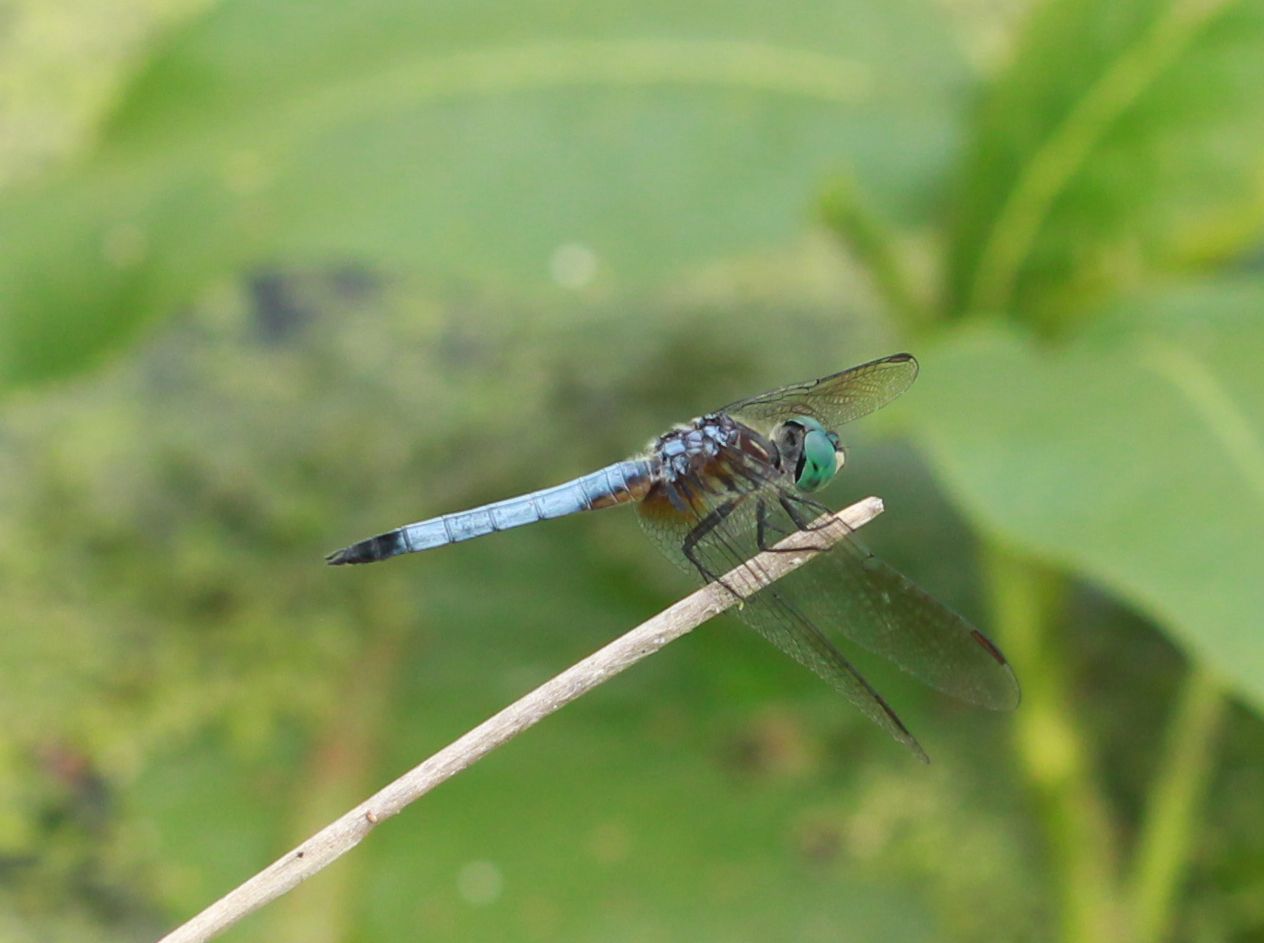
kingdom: Animalia
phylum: Arthropoda
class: Insecta
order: Odonata
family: Libellulidae
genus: Pachydiplax
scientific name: Pachydiplax longipennis
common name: Blue dasher
